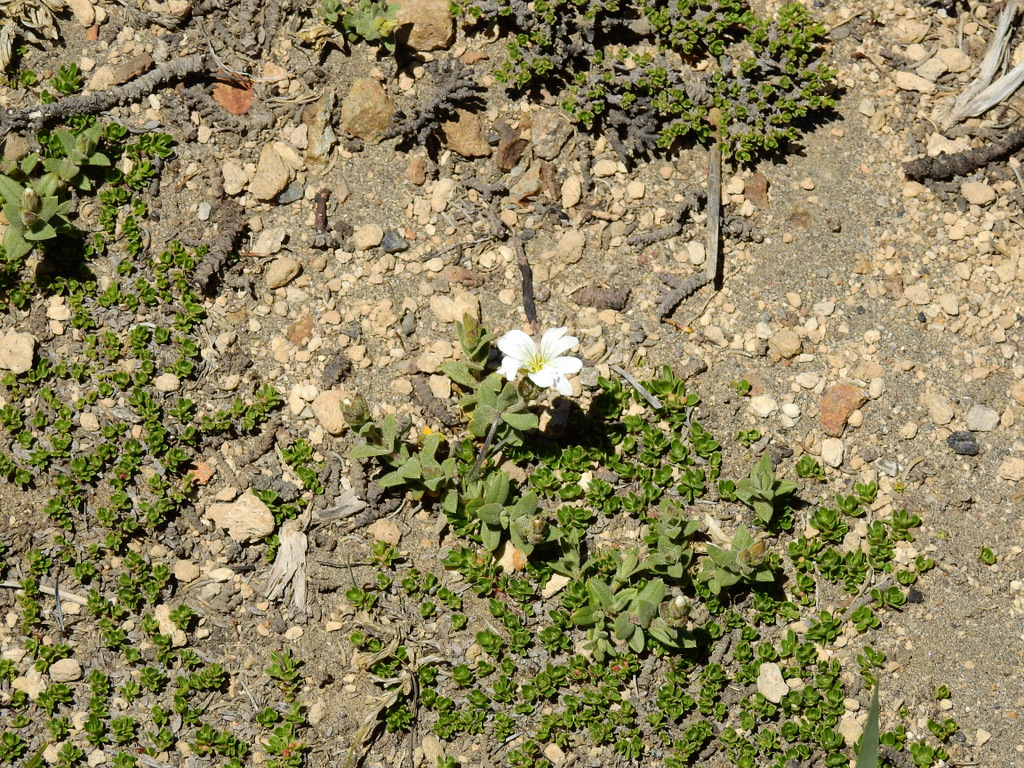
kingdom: Plantae
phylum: Tracheophyta
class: Magnoliopsida
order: Caryophyllales
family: Caryophyllaceae
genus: Cerastium
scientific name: Cerastium arvense
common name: Field mouse-ear
